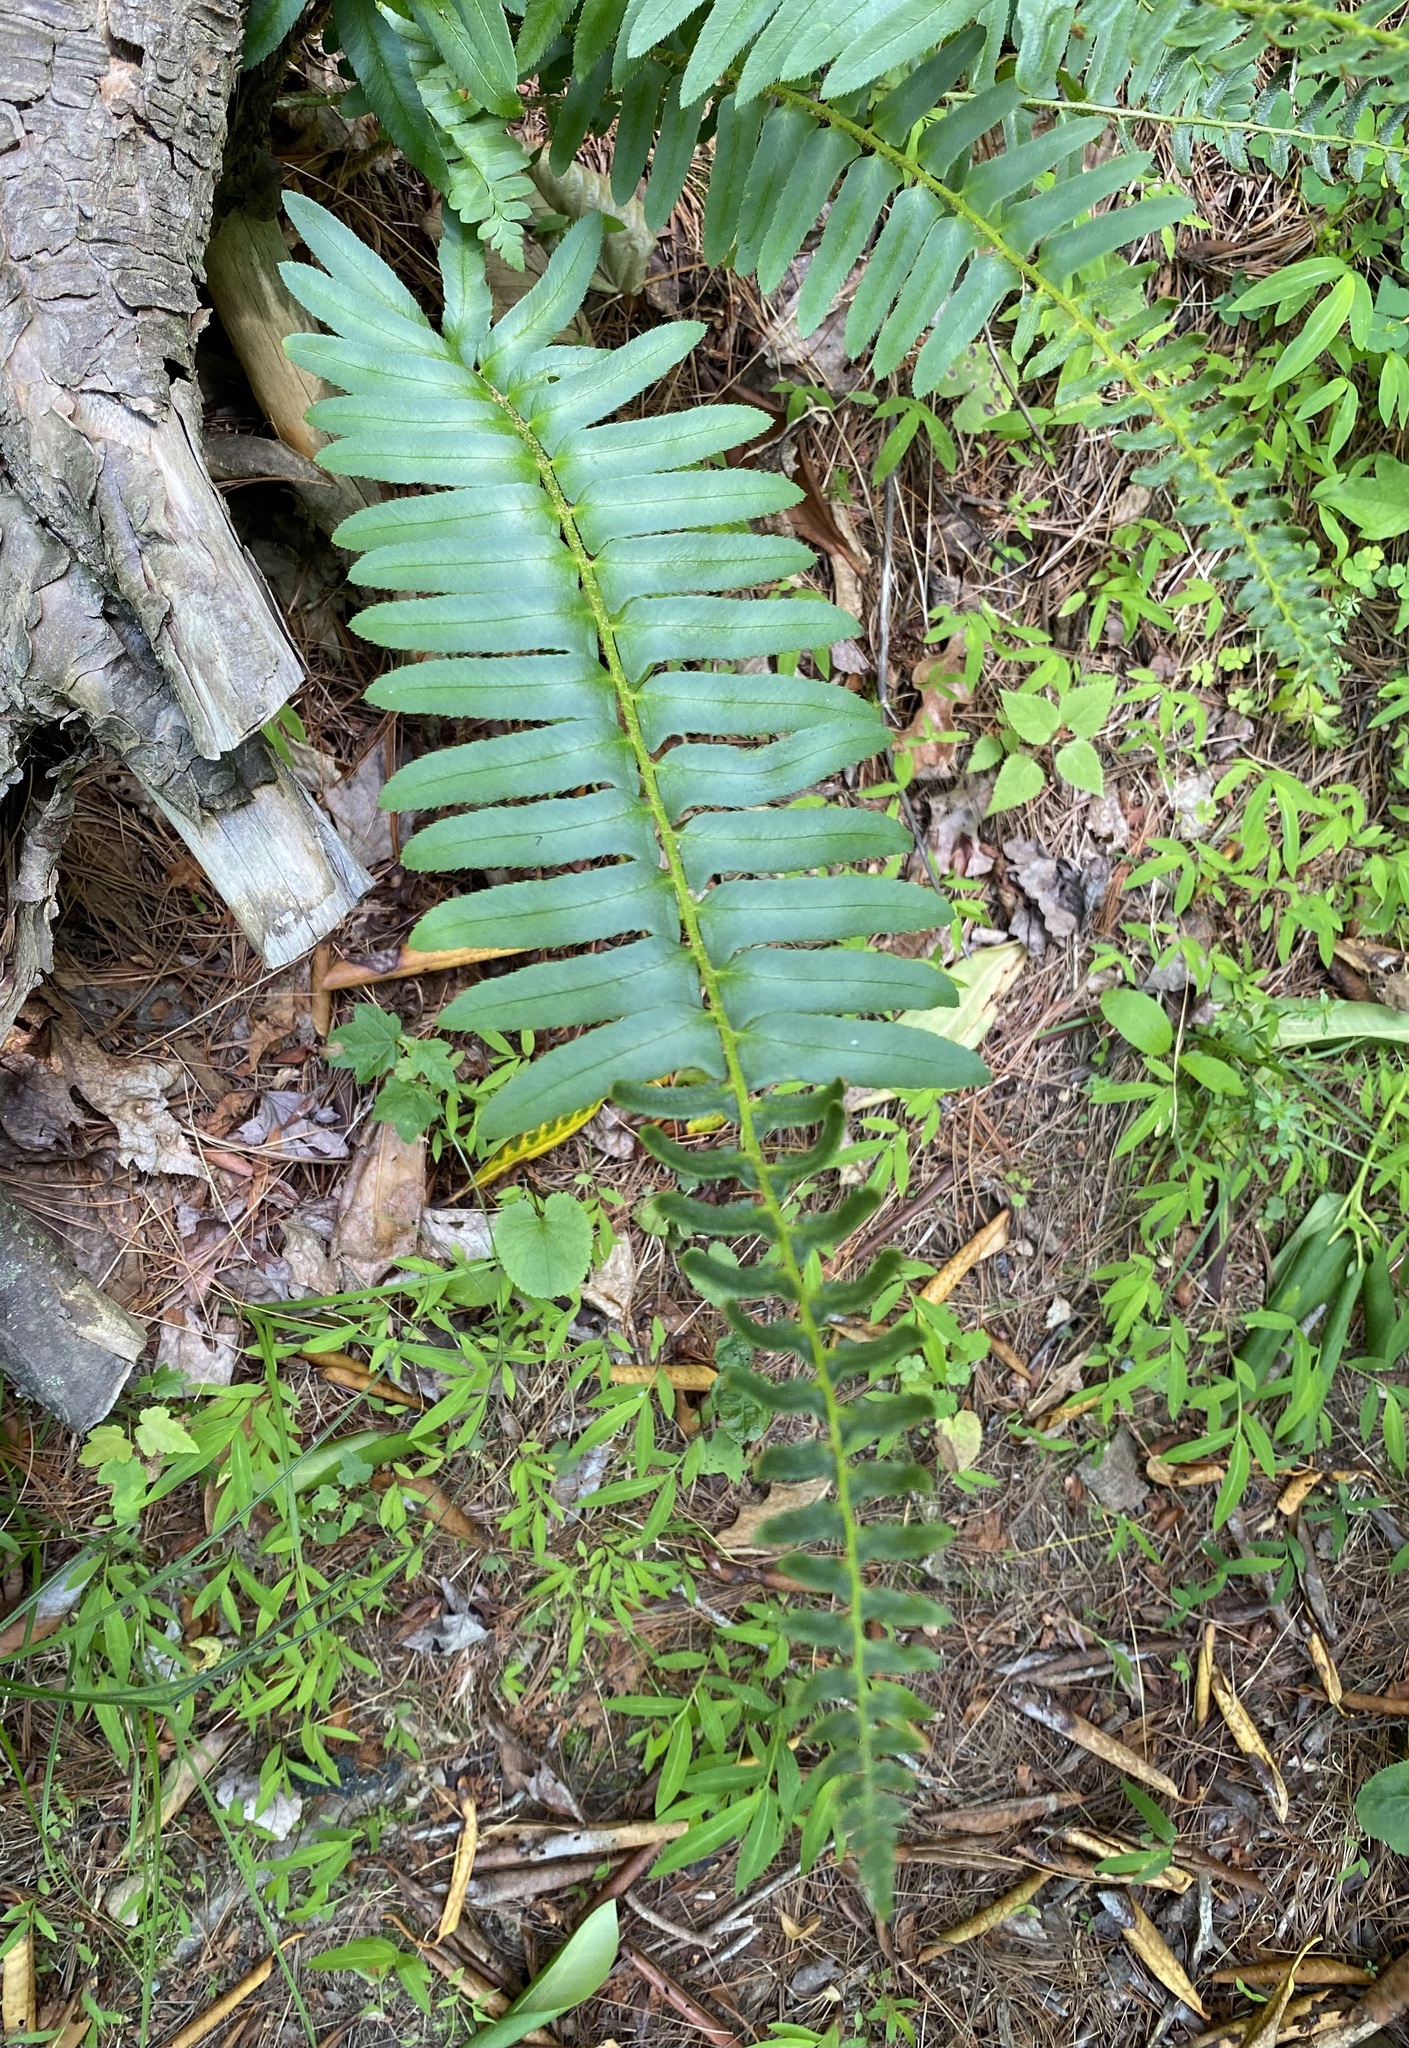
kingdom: Plantae
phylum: Tracheophyta
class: Polypodiopsida
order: Polypodiales
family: Dryopteridaceae
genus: Polystichum
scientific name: Polystichum acrostichoides
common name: Christmas fern
